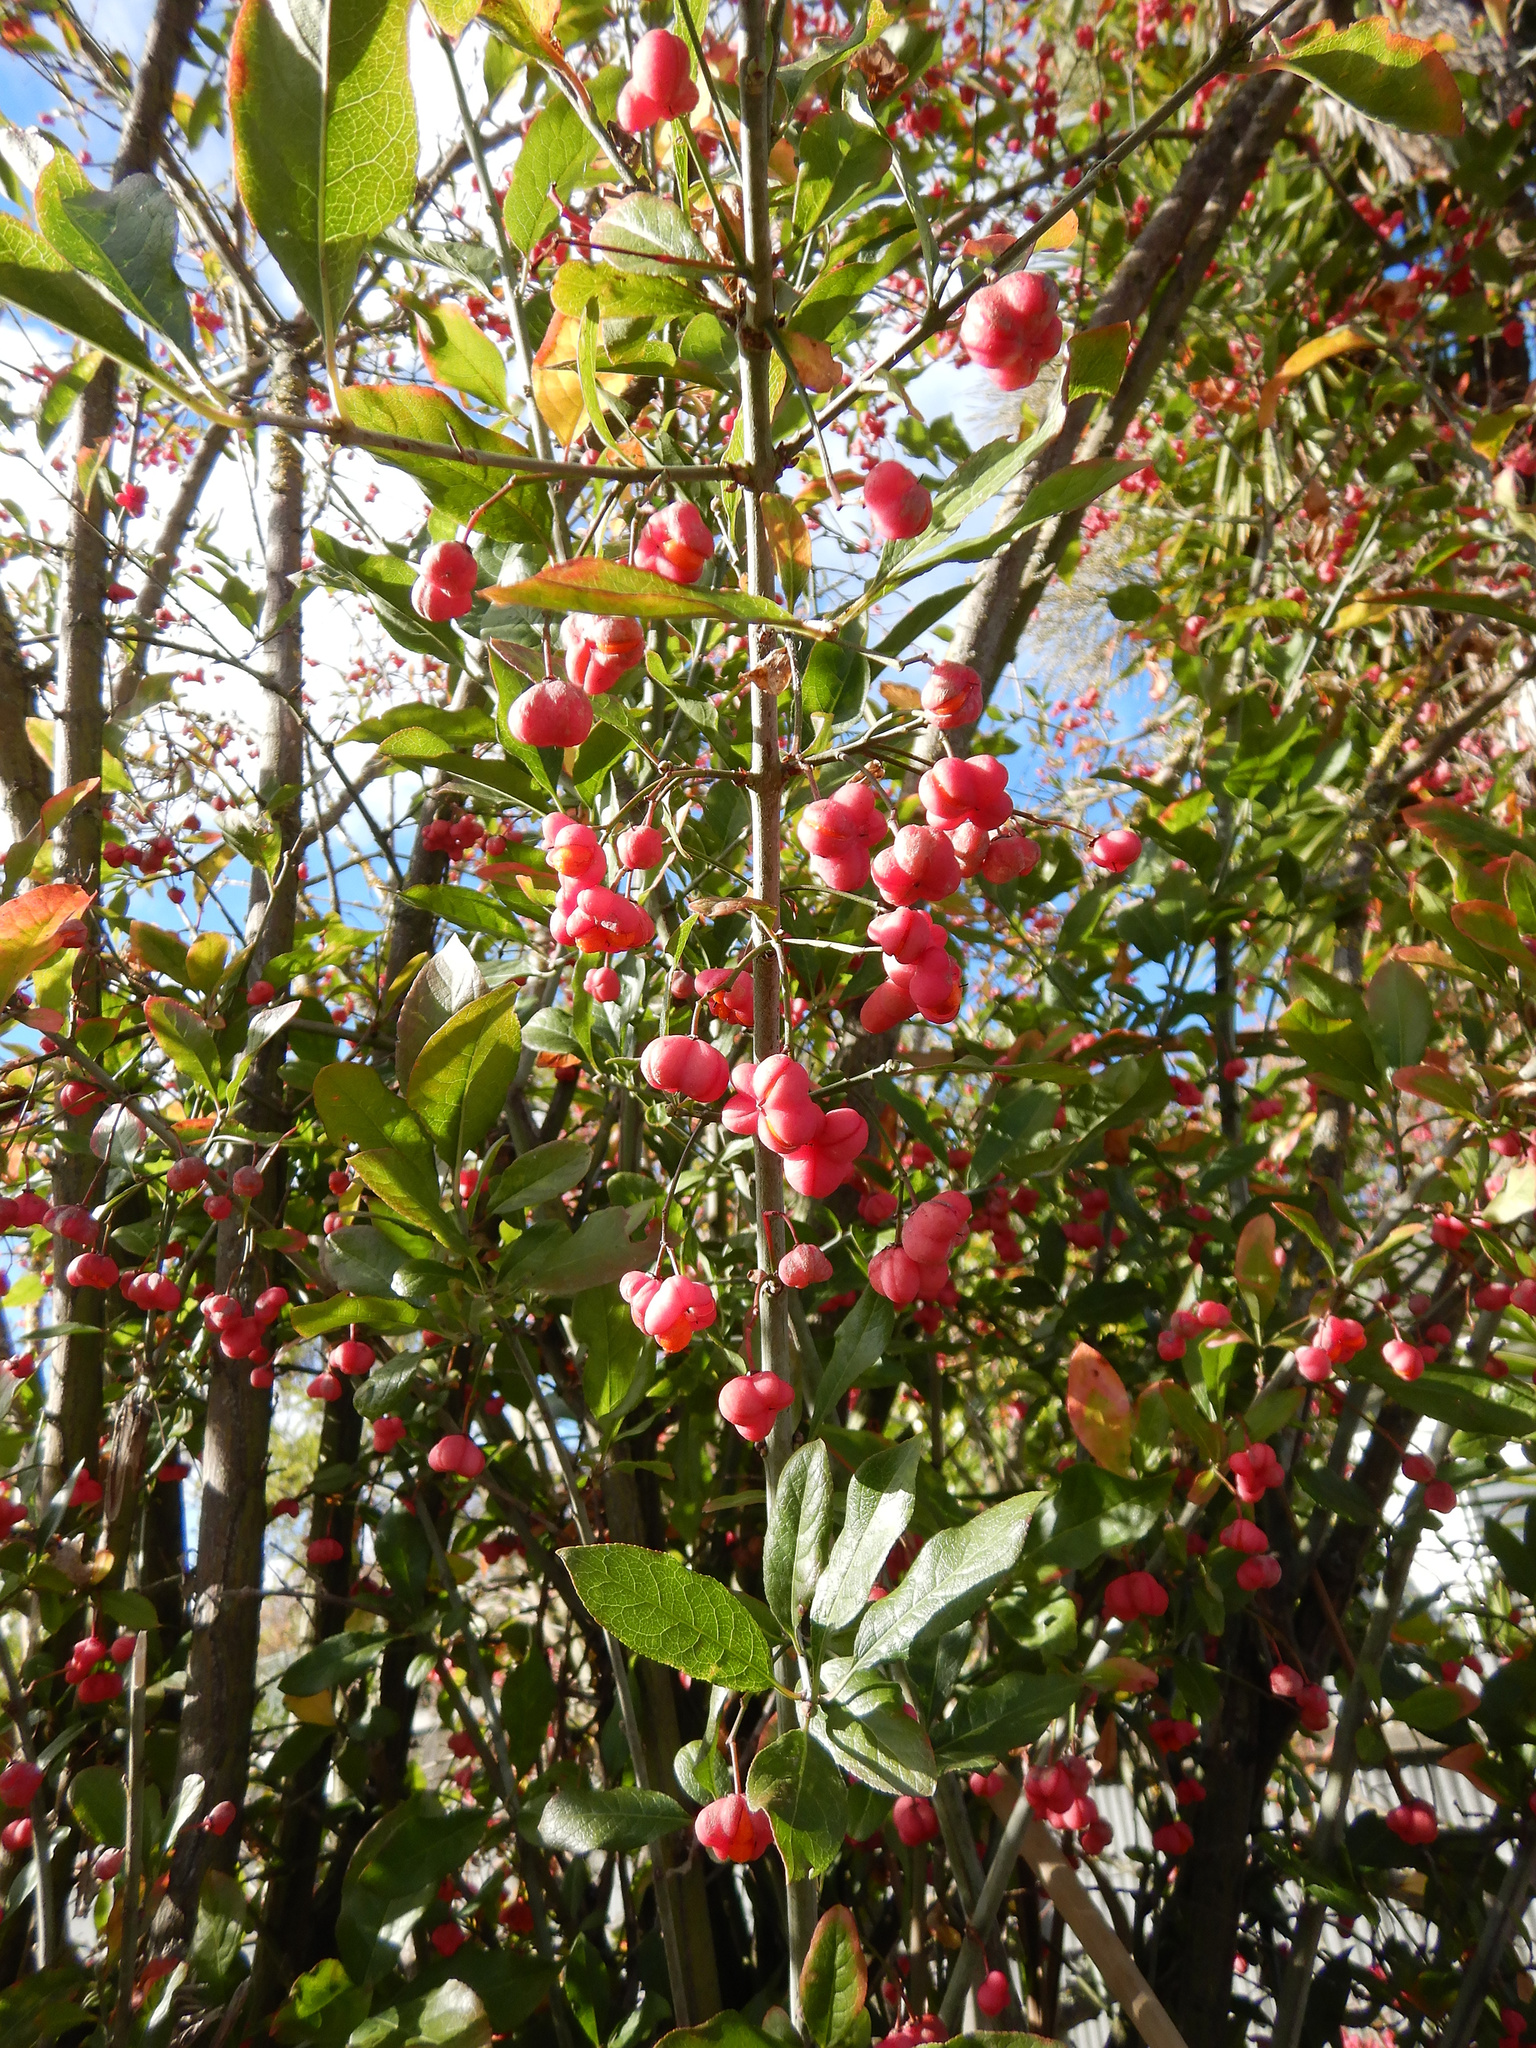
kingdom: Plantae
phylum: Tracheophyta
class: Magnoliopsida
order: Celastrales
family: Celastraceae
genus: Euonymus
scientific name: Euonymus europaeus
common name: Spindle
